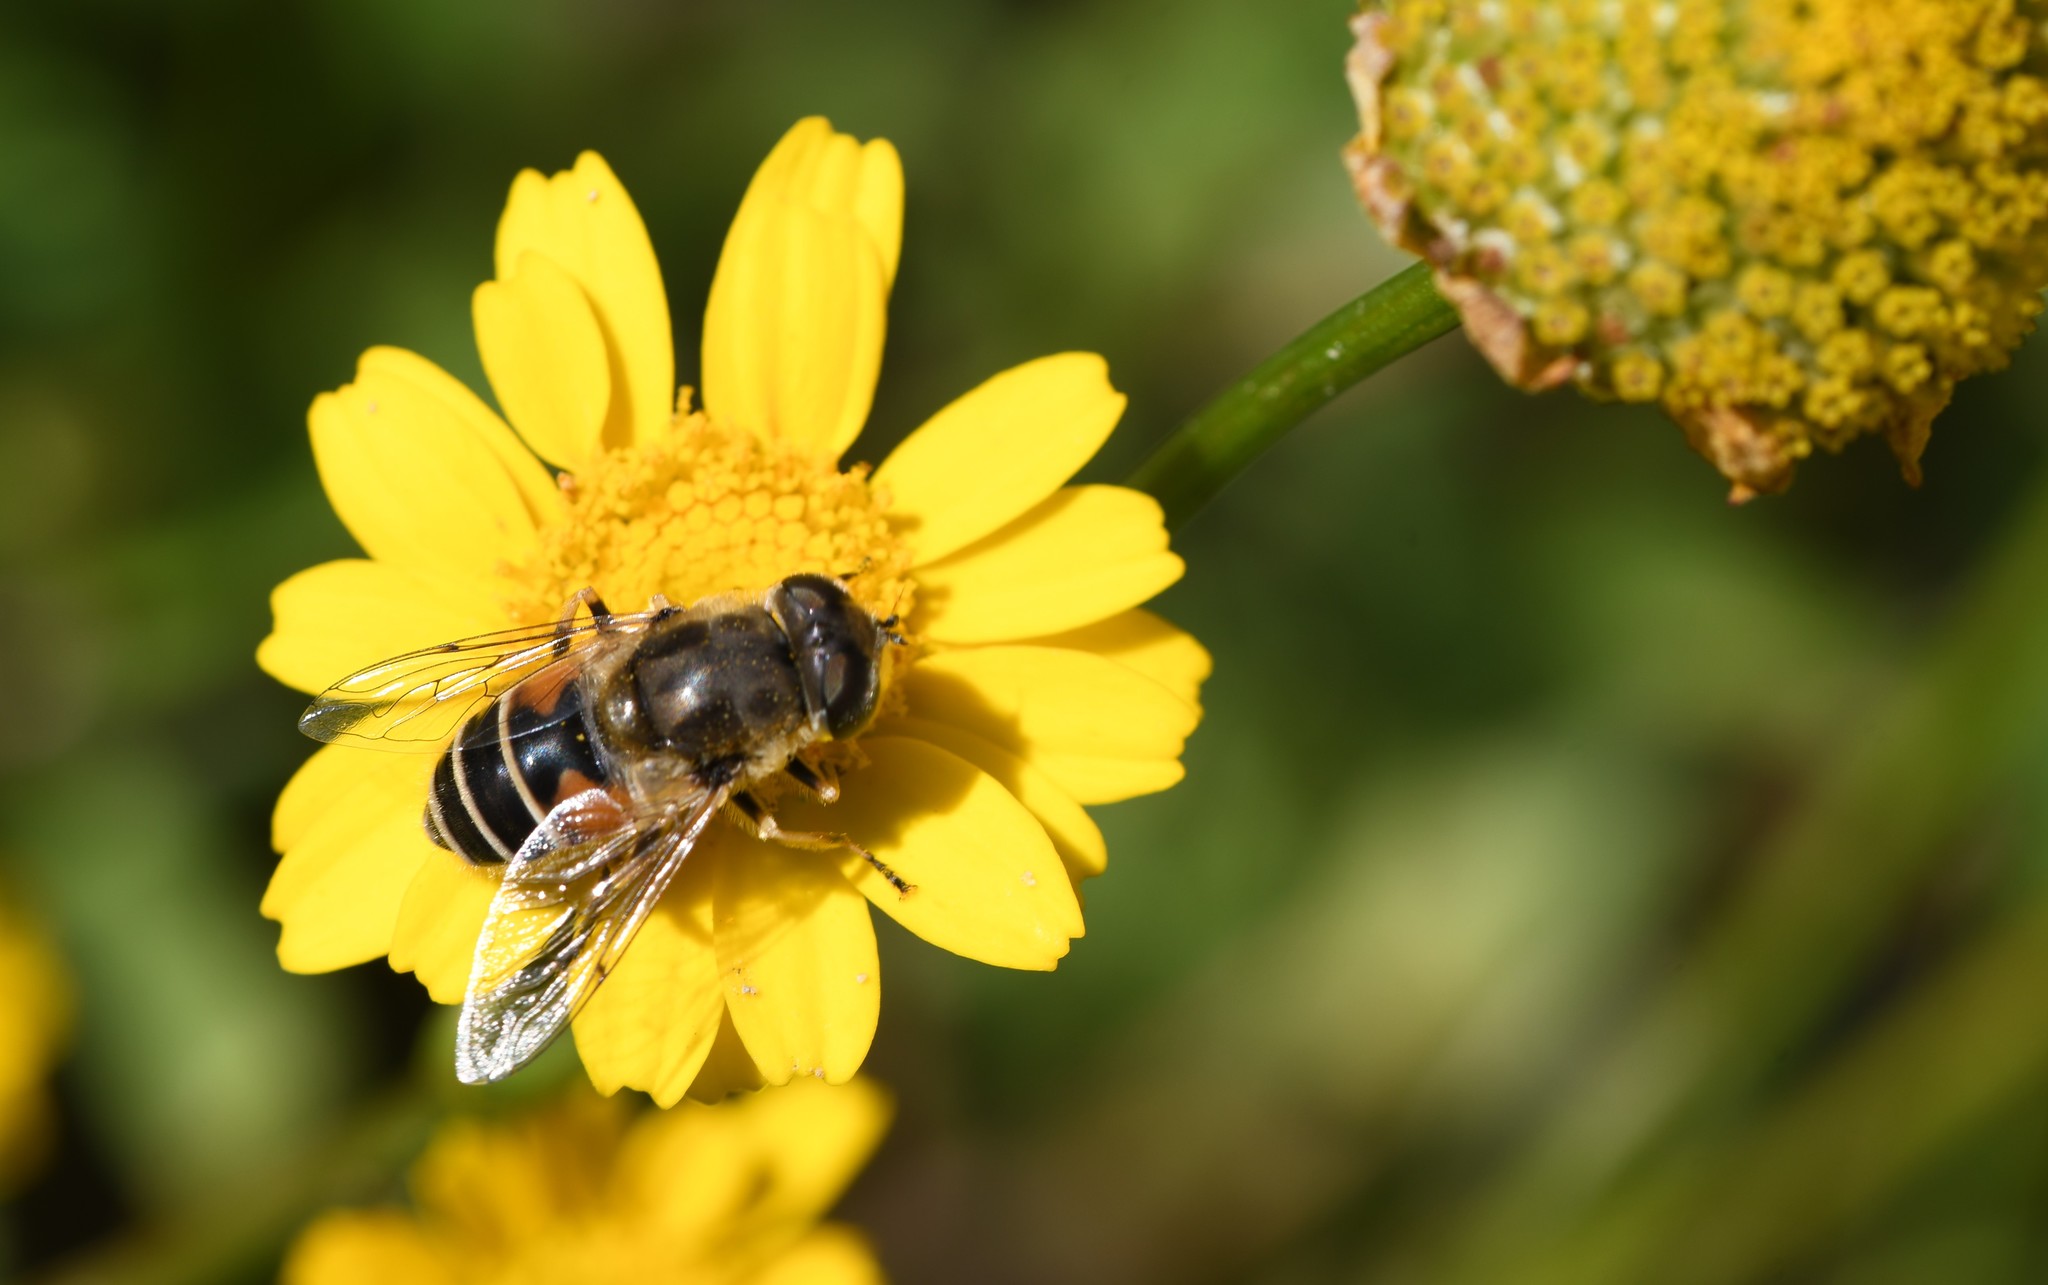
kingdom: Animalia
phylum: Arthropoda
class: Insecta
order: Diptera
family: Syrphidae
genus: Eristalis
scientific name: Eristalis arbustorum
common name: Hover fly
